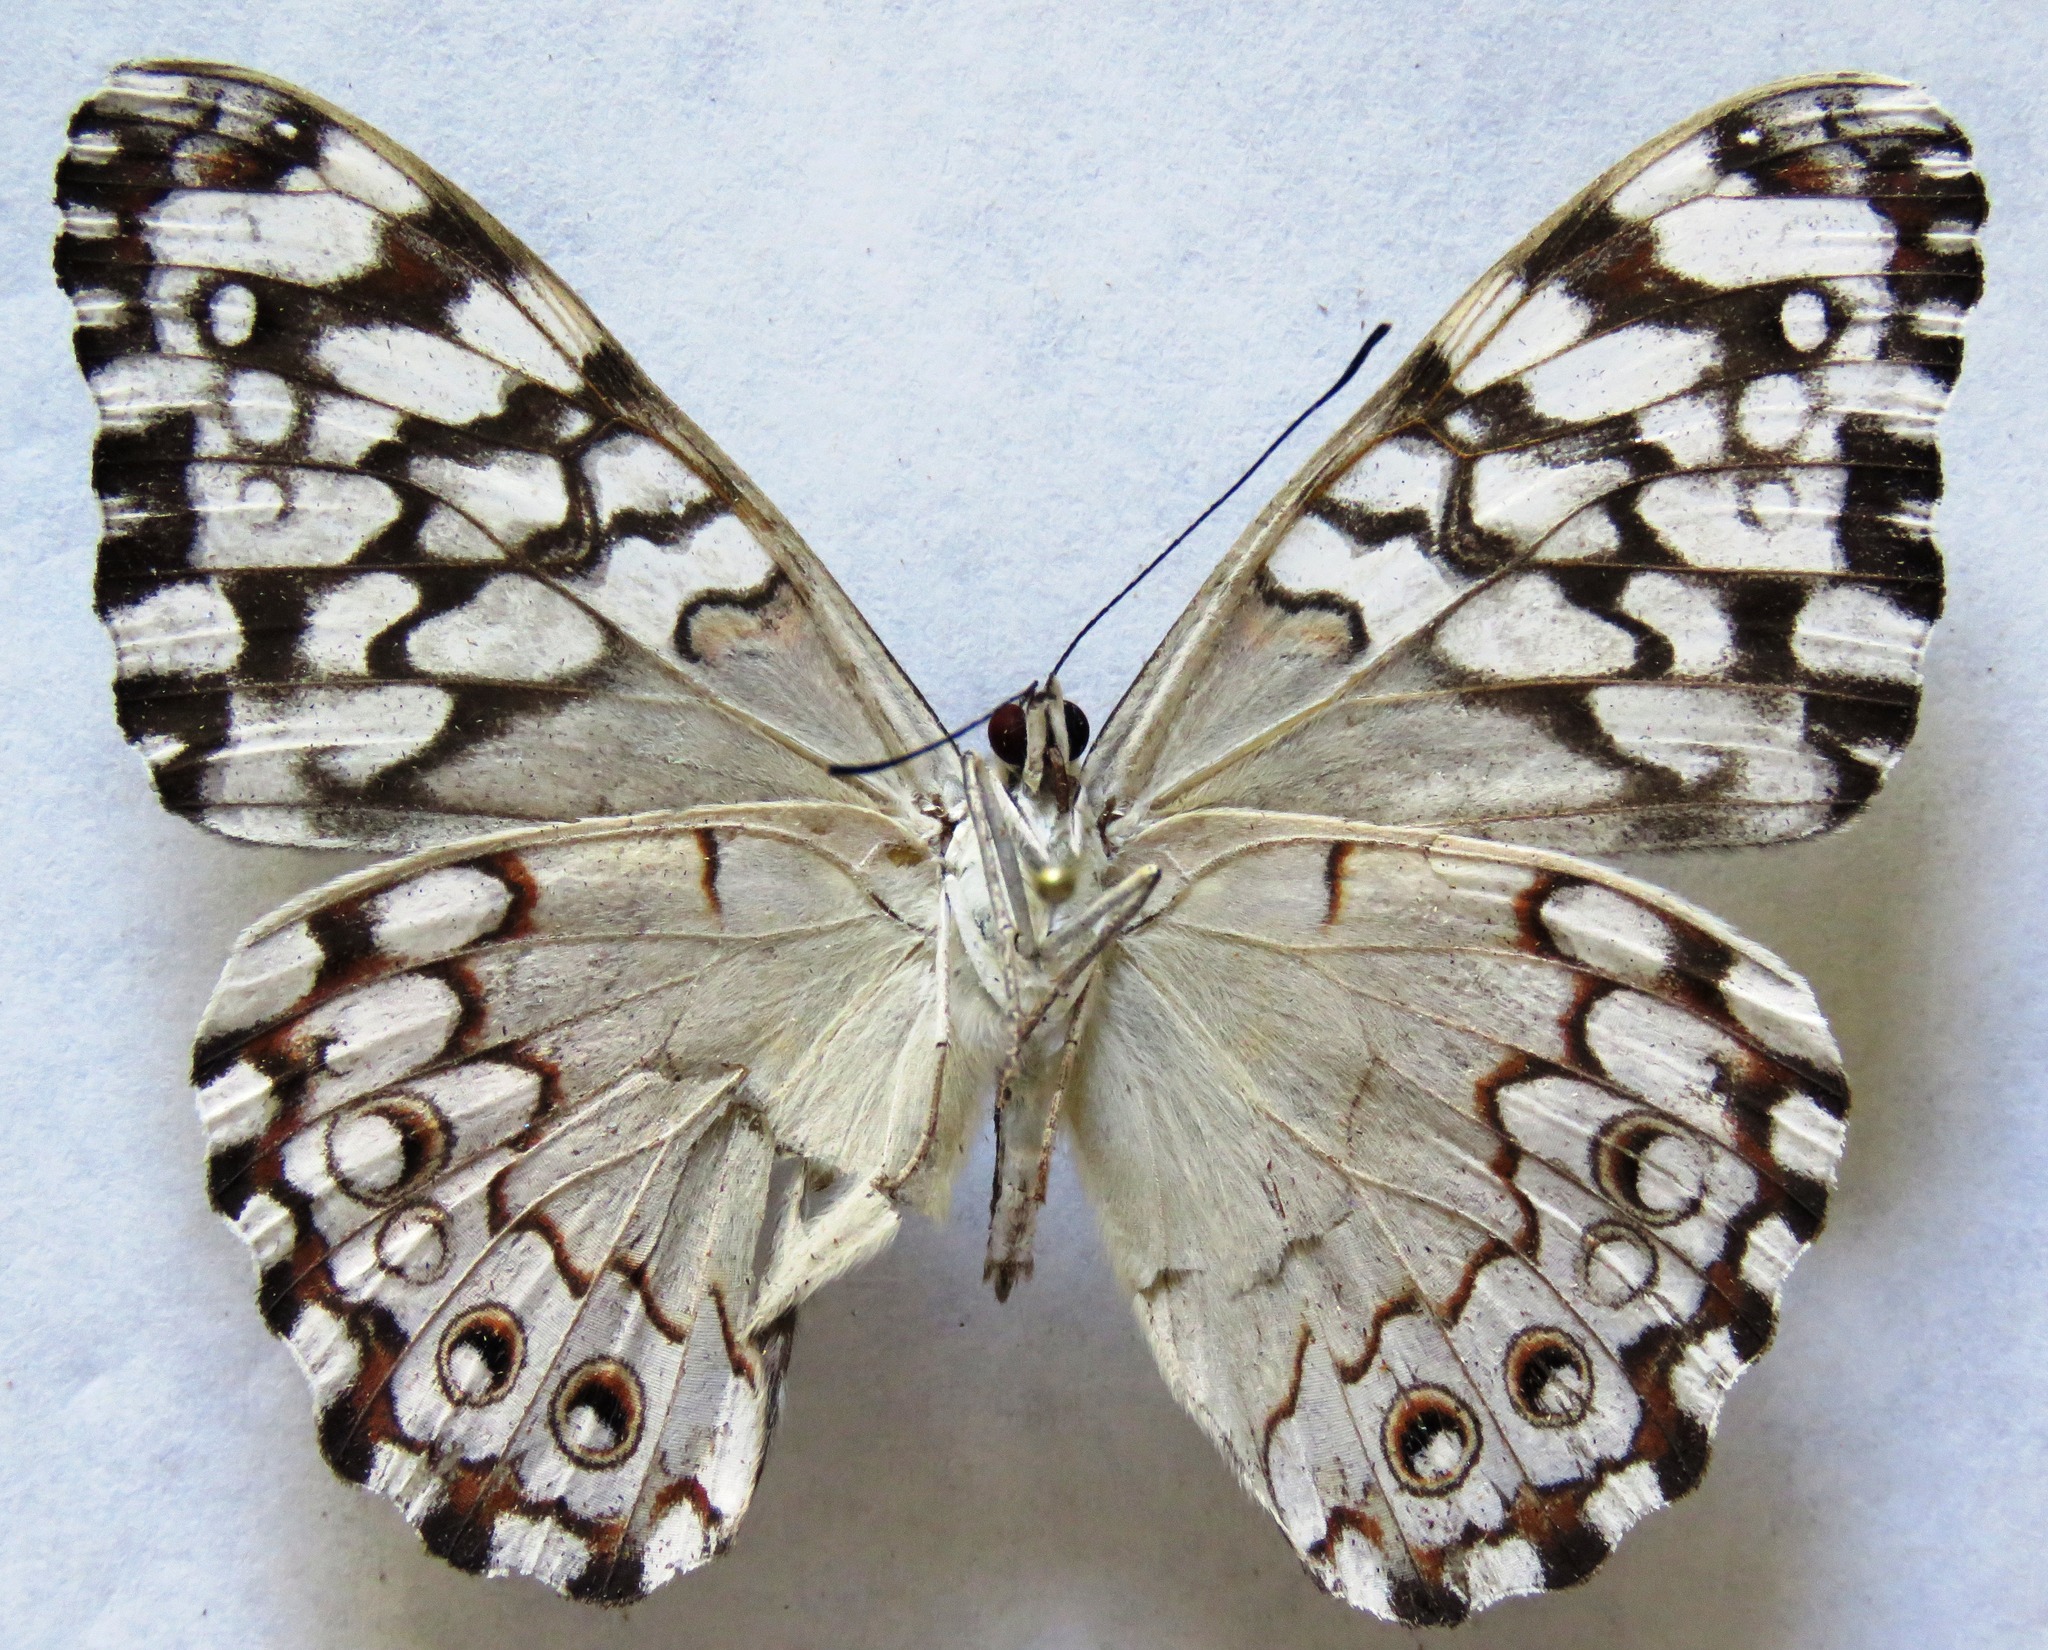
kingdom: Animalia
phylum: Arthropoda
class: Insecta
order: Lepidoptera
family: Nymphalidae
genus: Hamadryas
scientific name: Hamadryas februa
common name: Gray cracker
